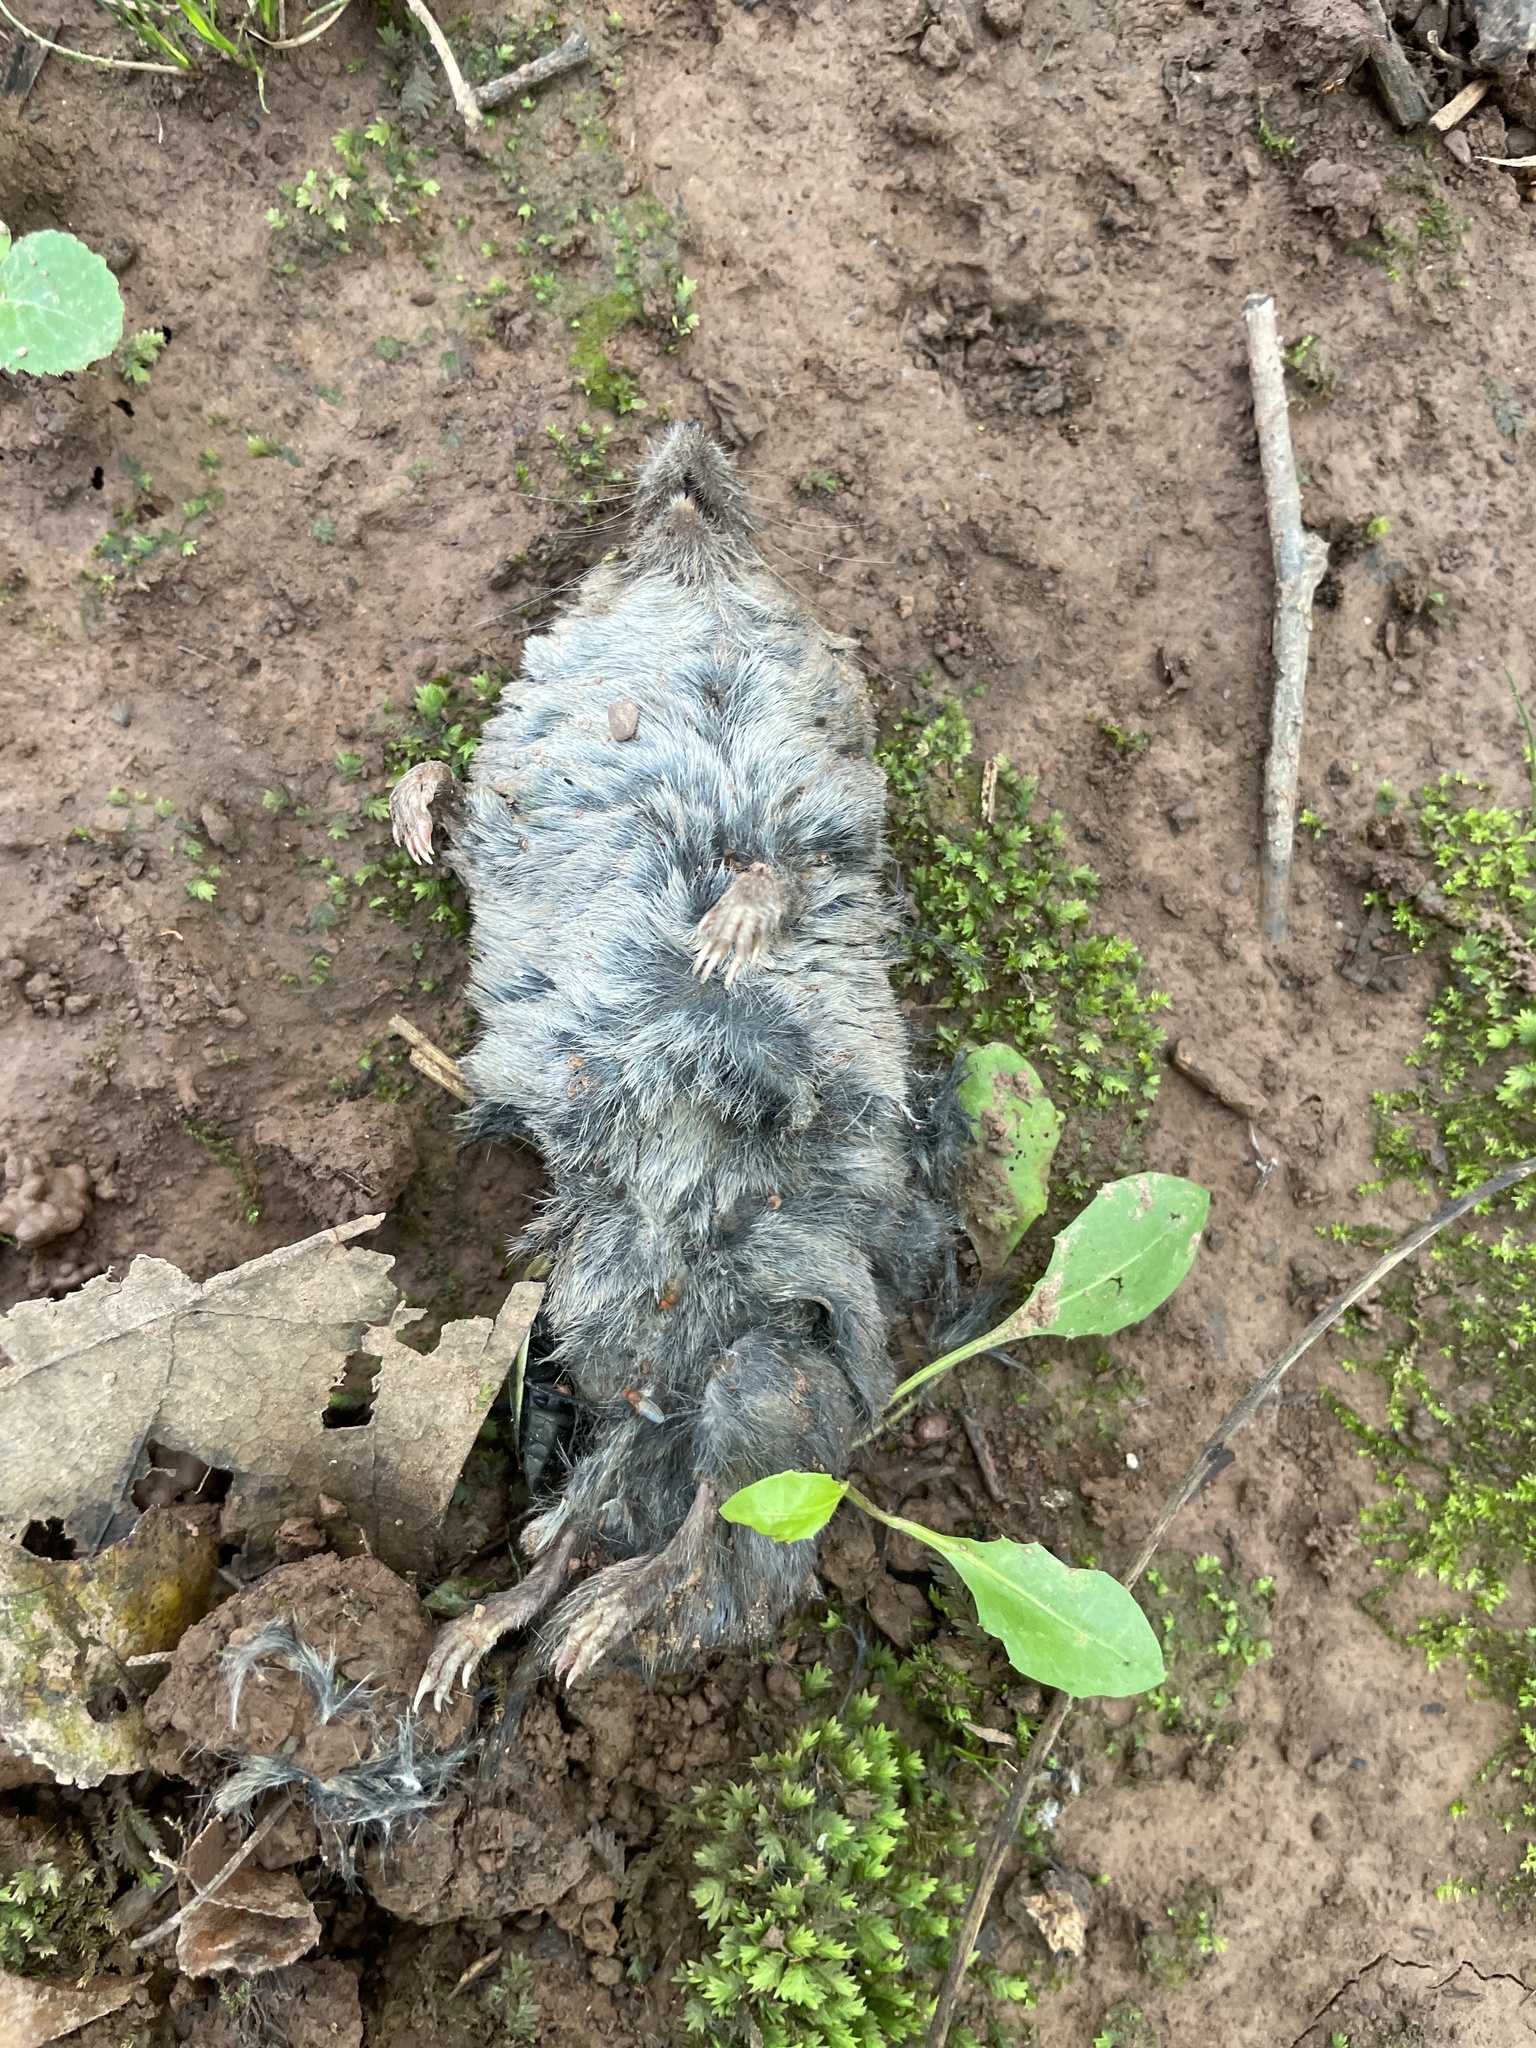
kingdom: Animalia
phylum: Chordata
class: Mammalia
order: Soricomorpha
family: Soricidae
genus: Blarina
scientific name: Blarina brevicauda
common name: Northern short-tailed shrew
